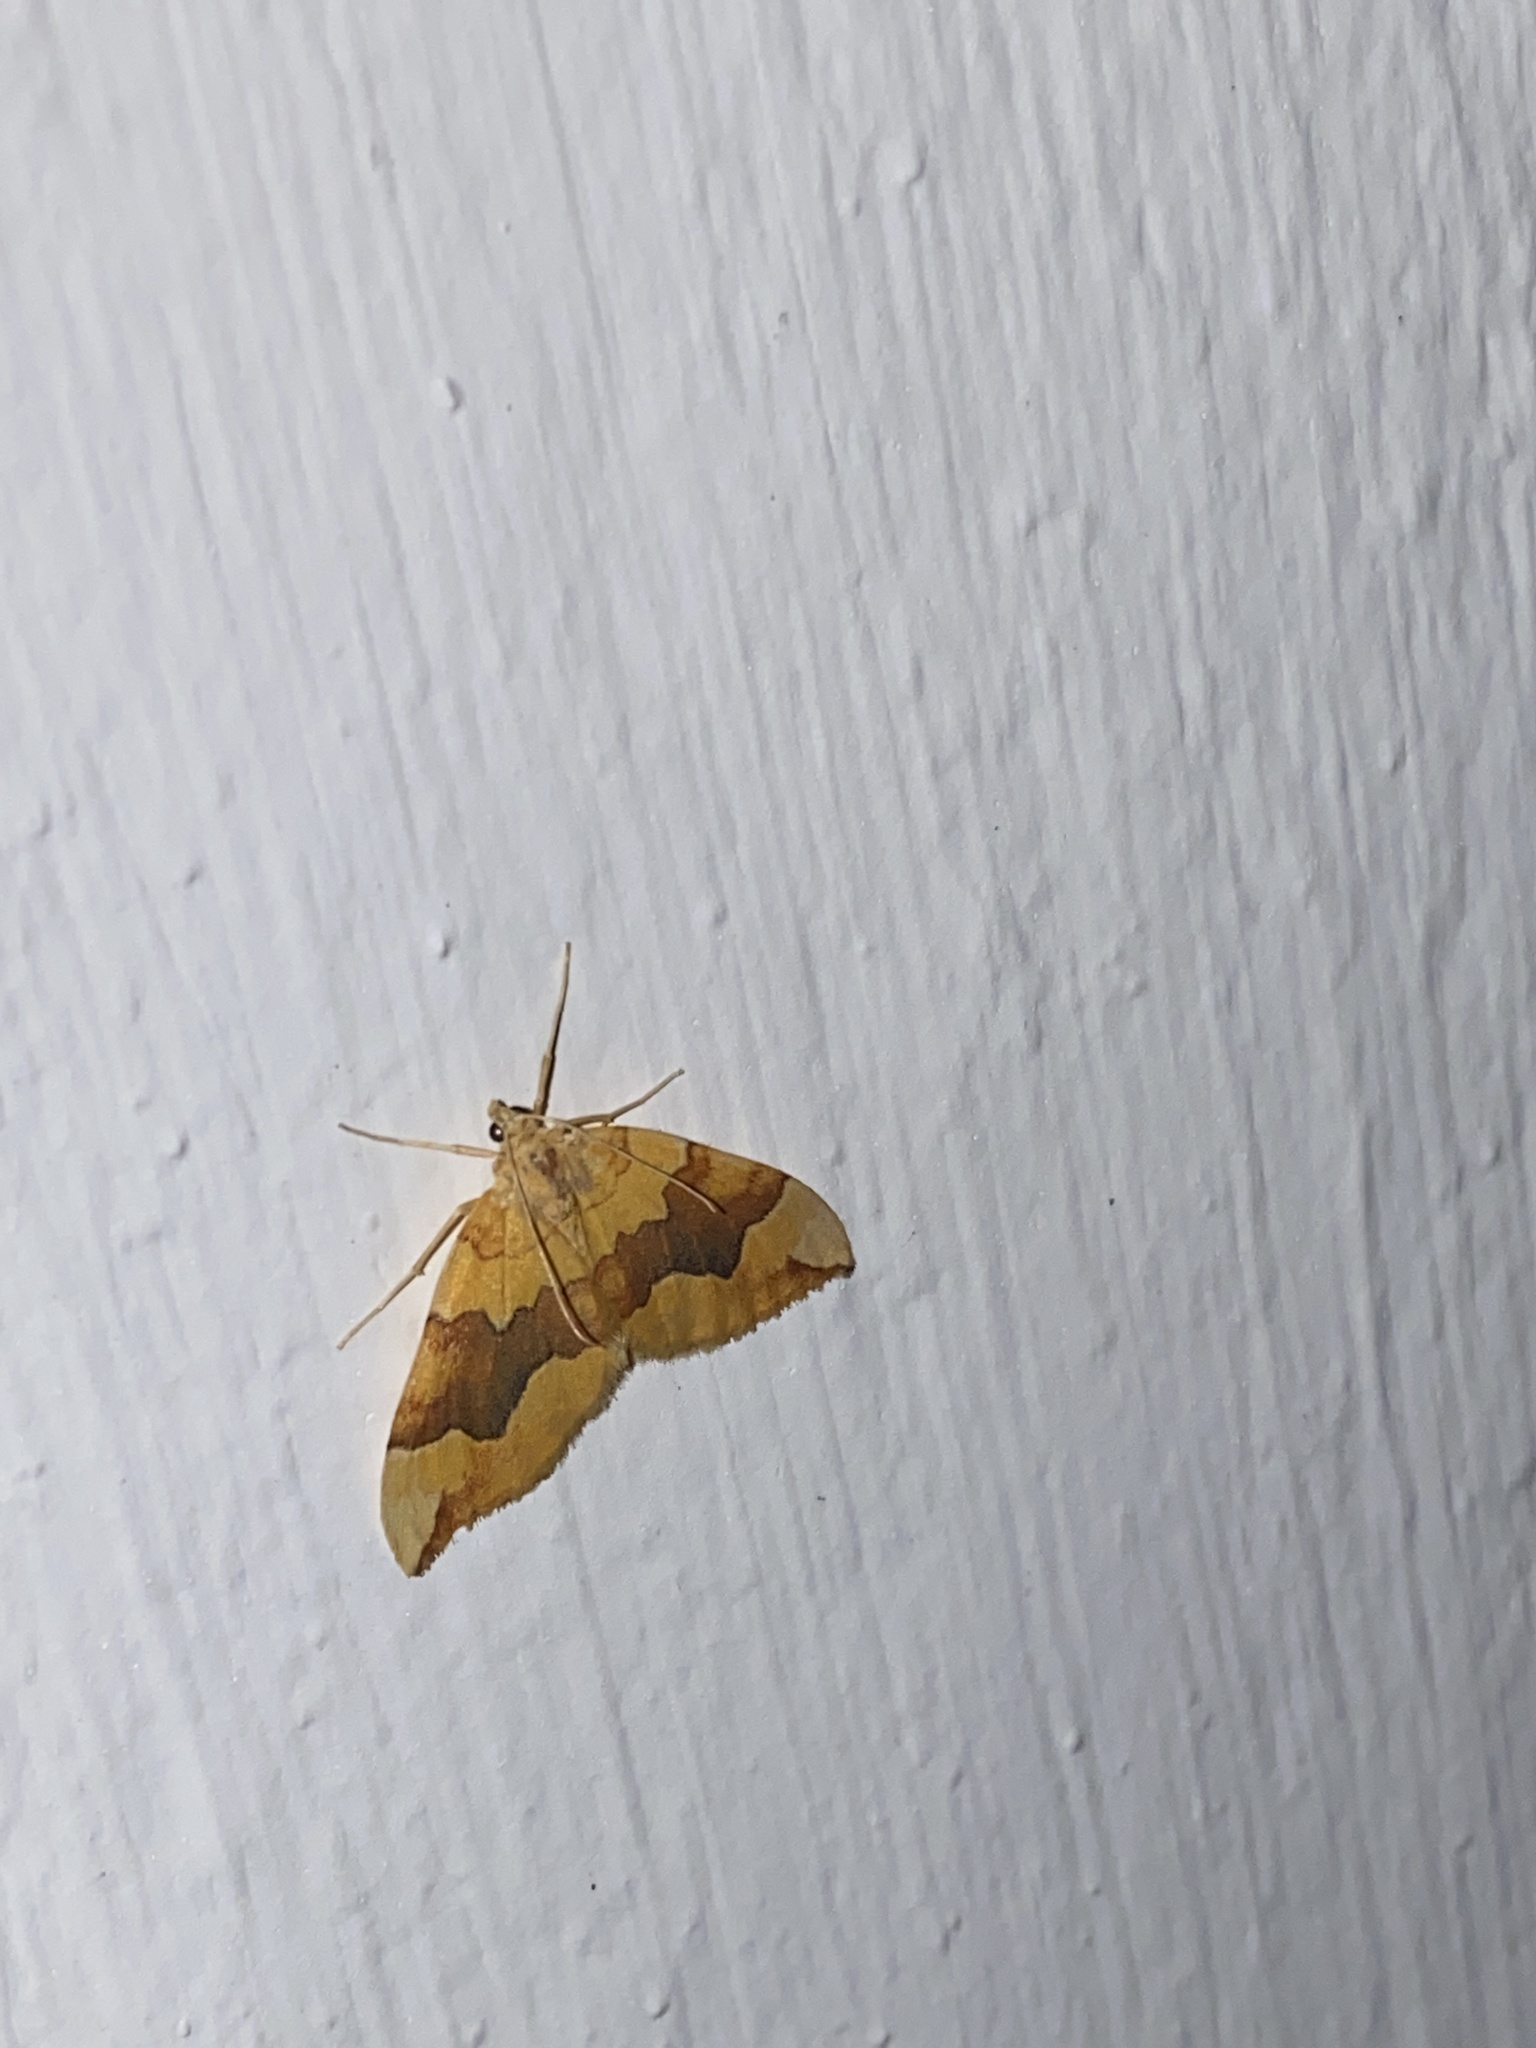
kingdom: Animalia
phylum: Arthropoda
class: Insecta
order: Lepidoptera
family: Geometridae
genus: Cidaria
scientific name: Cidaria fulvata
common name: Barred yellow
